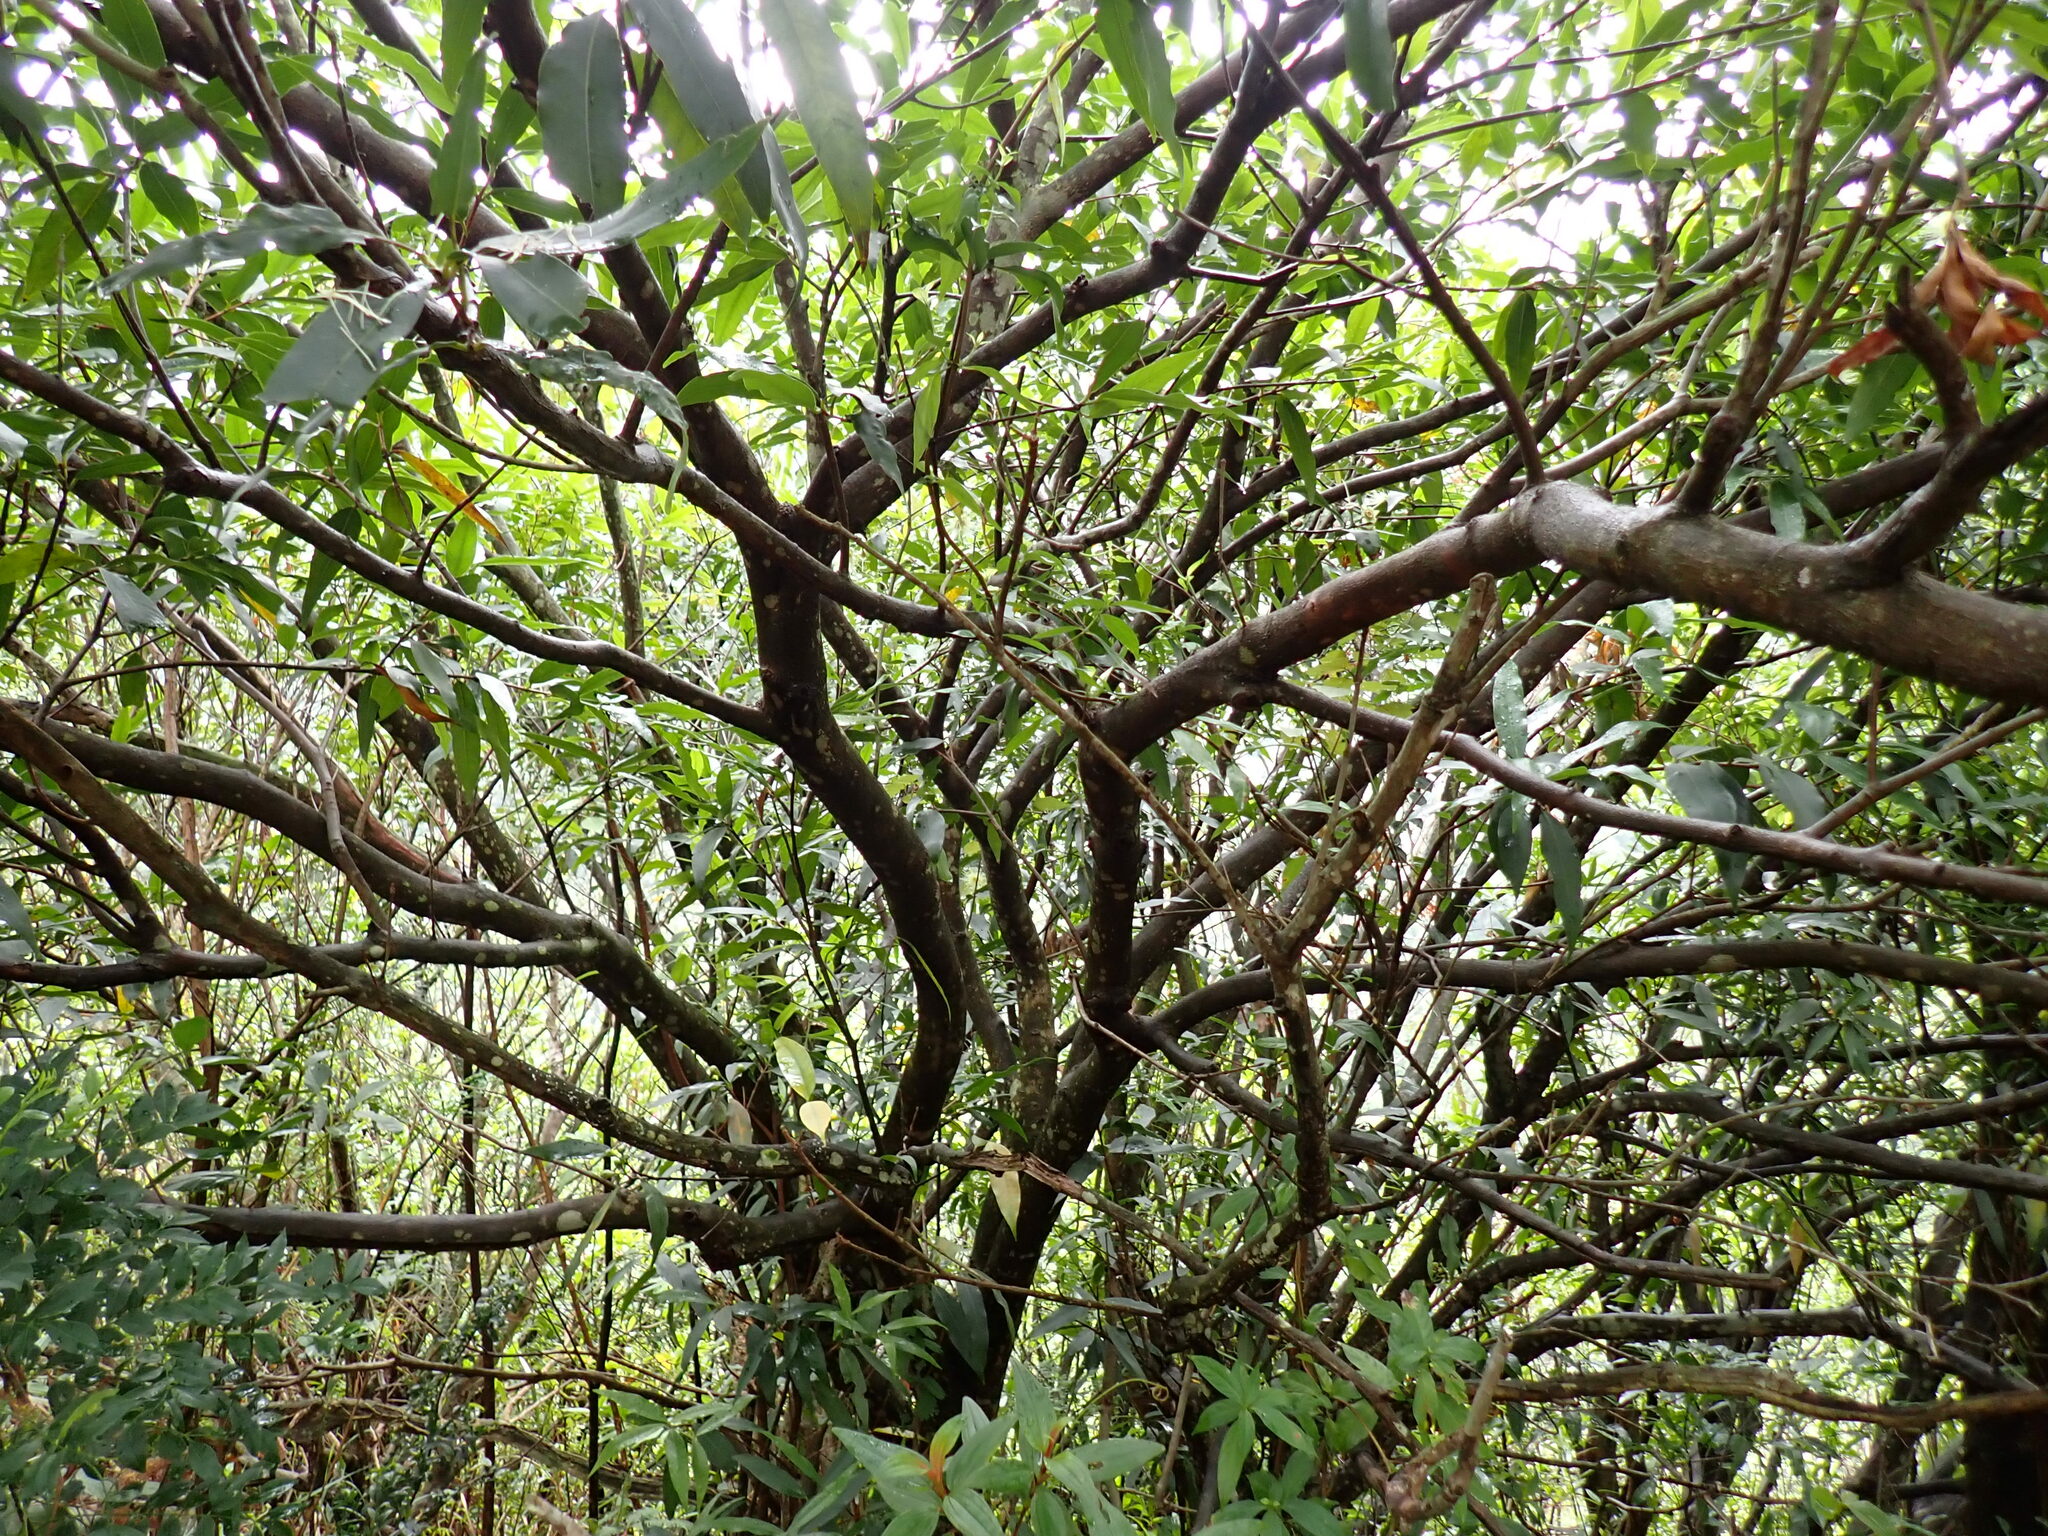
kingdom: Plantae
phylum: Tracheophyta
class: Magnoliopsida
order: Myrtales
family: Myrtaceae
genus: Syzygium
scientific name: Syzygium jambos
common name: Malabar plum
